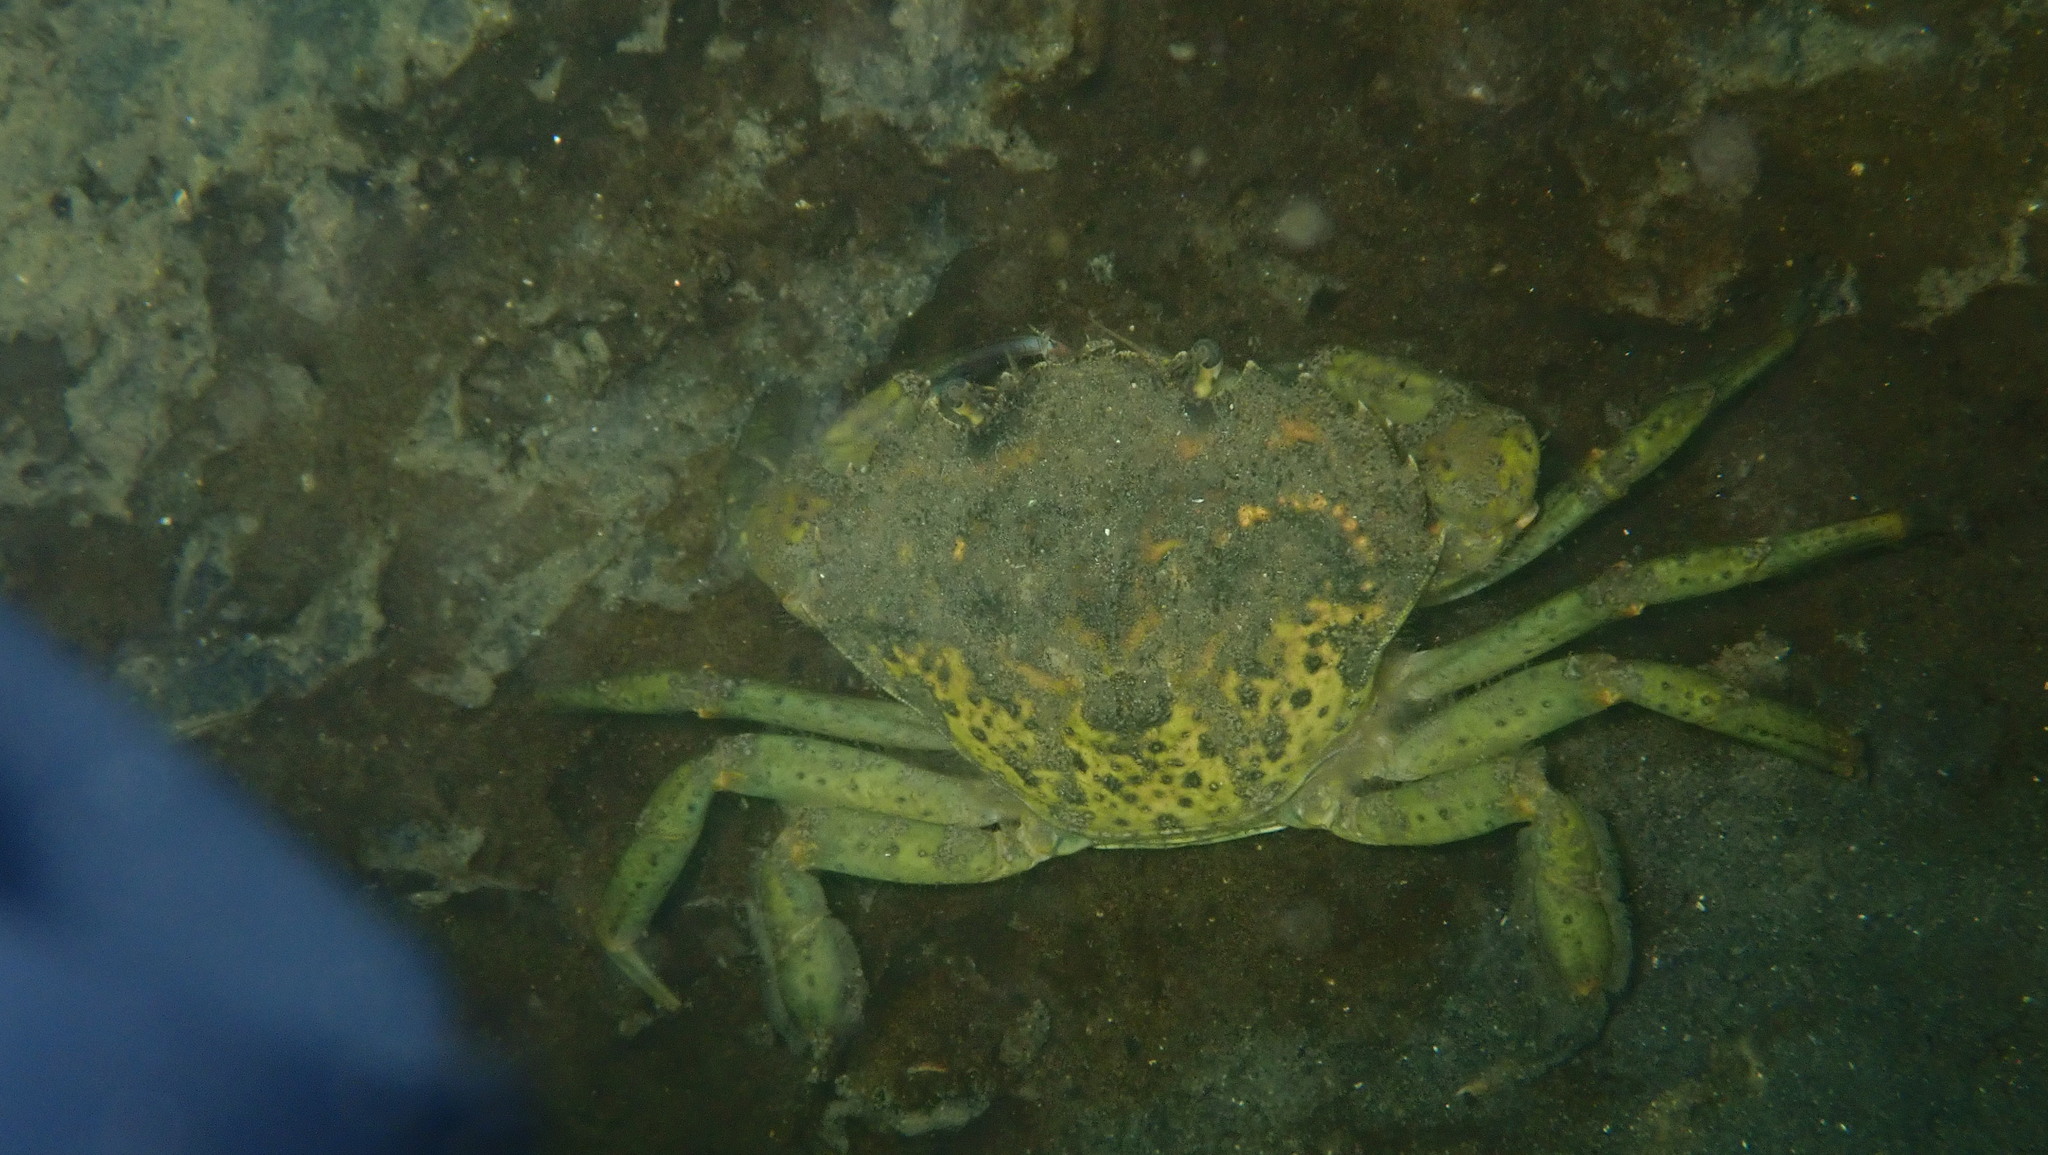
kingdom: Animalia
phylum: Arthropoda
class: Malacostraca
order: Decapoda
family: Carcinidae
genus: Carcinus
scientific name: Carcinus maenas
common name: European green crab
